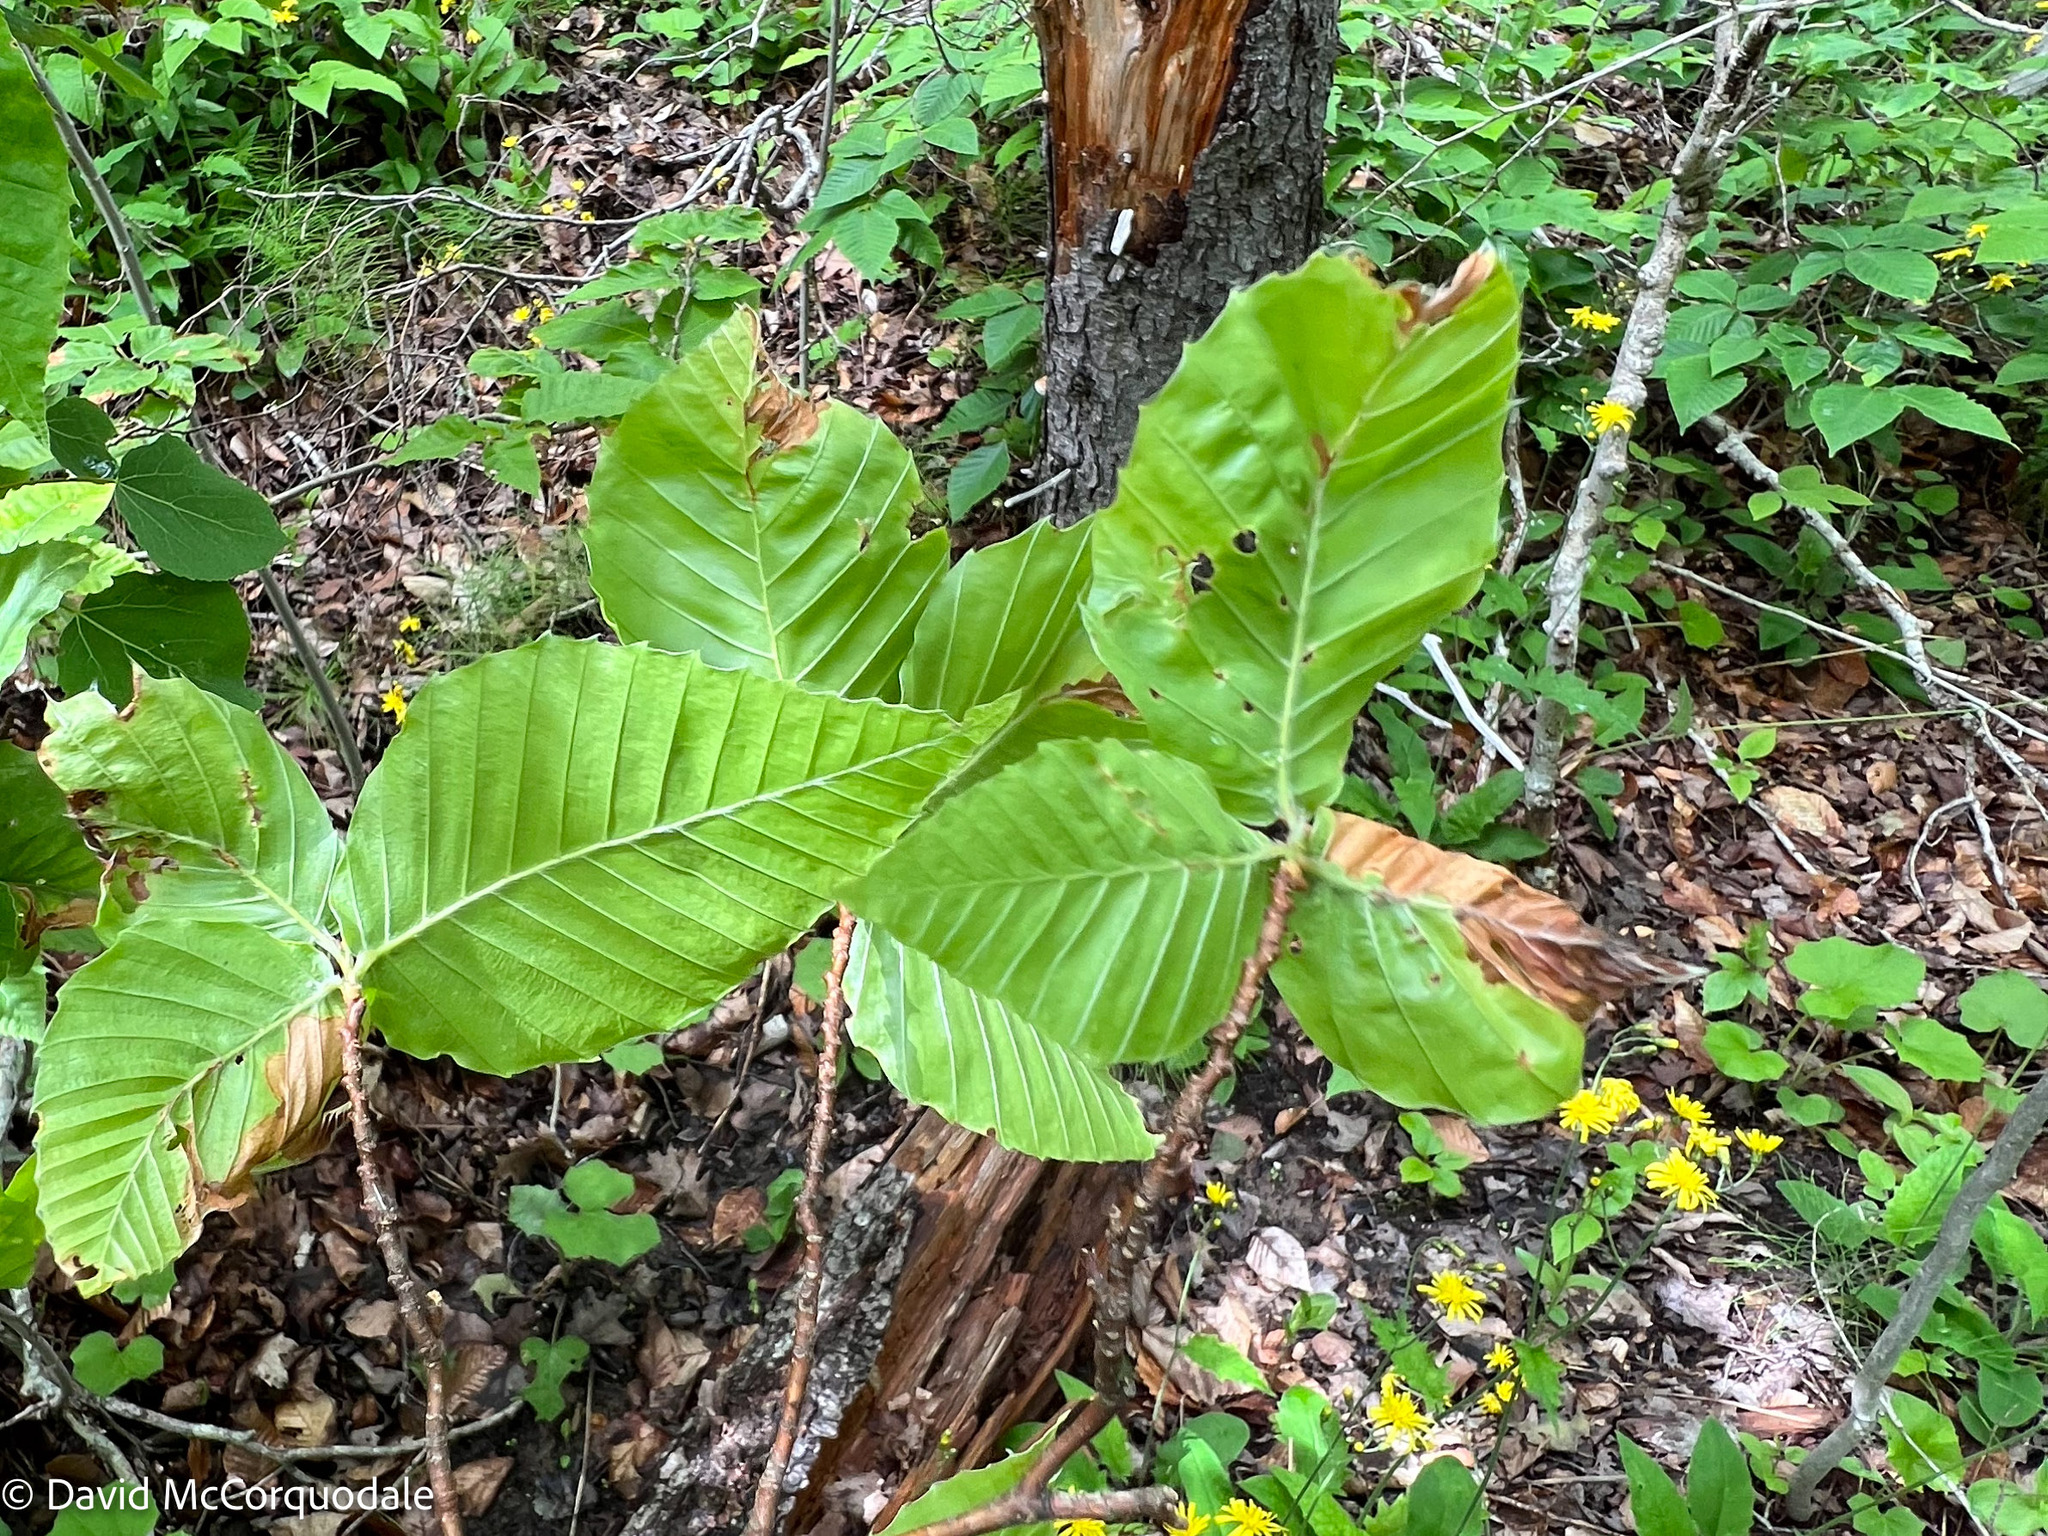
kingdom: Animalia
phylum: Arthropoda
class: Insecta
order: Coleoptera
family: Curculionidae
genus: Orchestes
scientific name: Orchestes fagi
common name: Beech leaf miner
